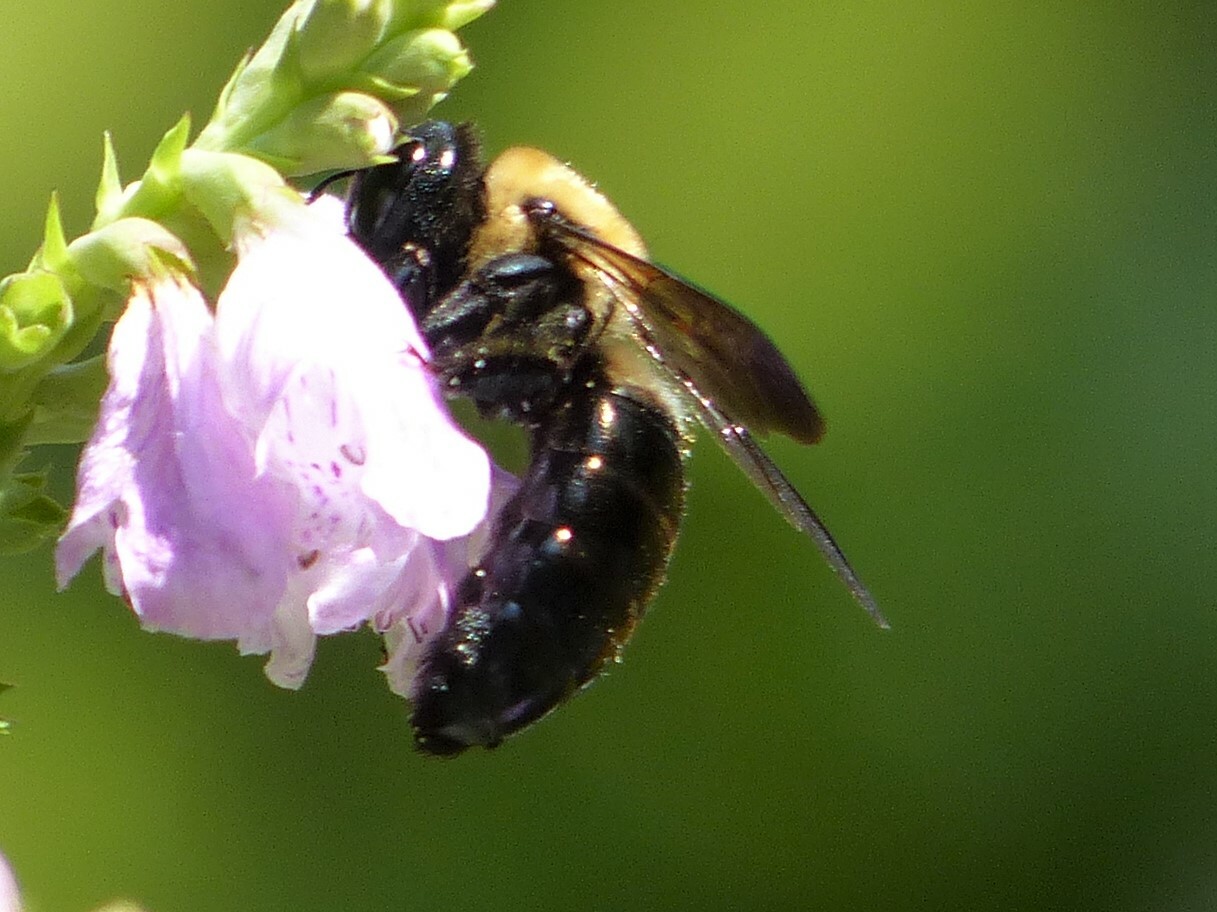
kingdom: Animalia
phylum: Arthropoda
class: Insecta
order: Hymenoptera
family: Apidae
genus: Xylocopa
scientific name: Xylocopa virginica
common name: Carpenter bee
